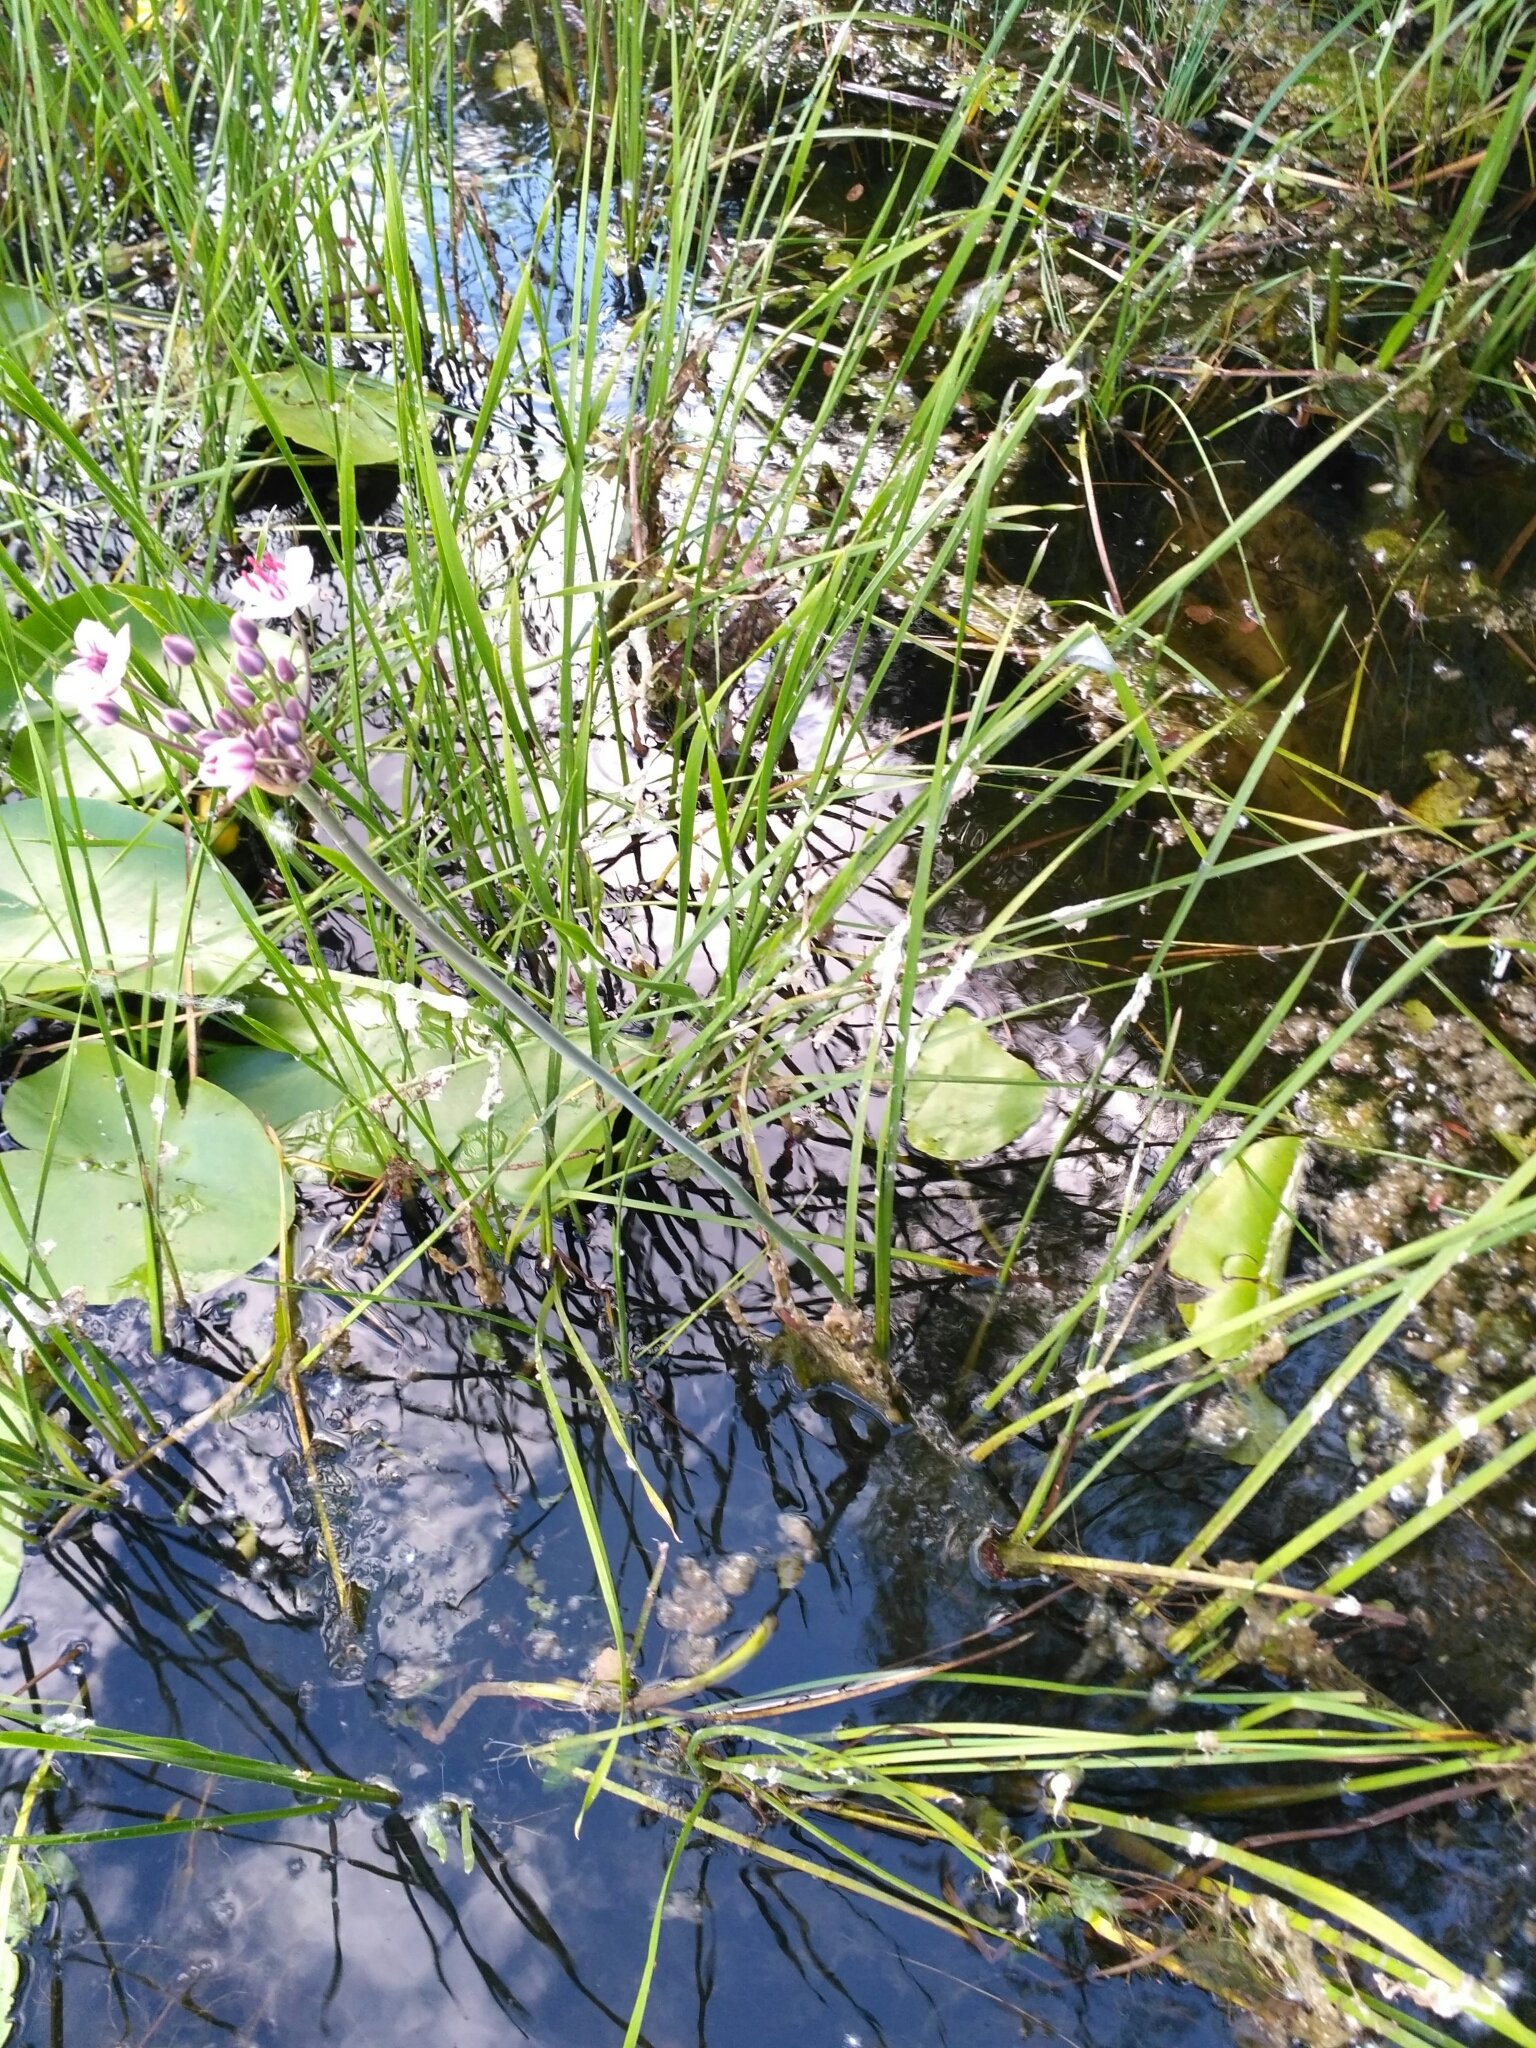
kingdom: Plantae
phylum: Tracheophyta
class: Liliopsida
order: Alismatales
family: Butomaceae
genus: Butomus
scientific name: Butomus umbellatus
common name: Flowering-rush
